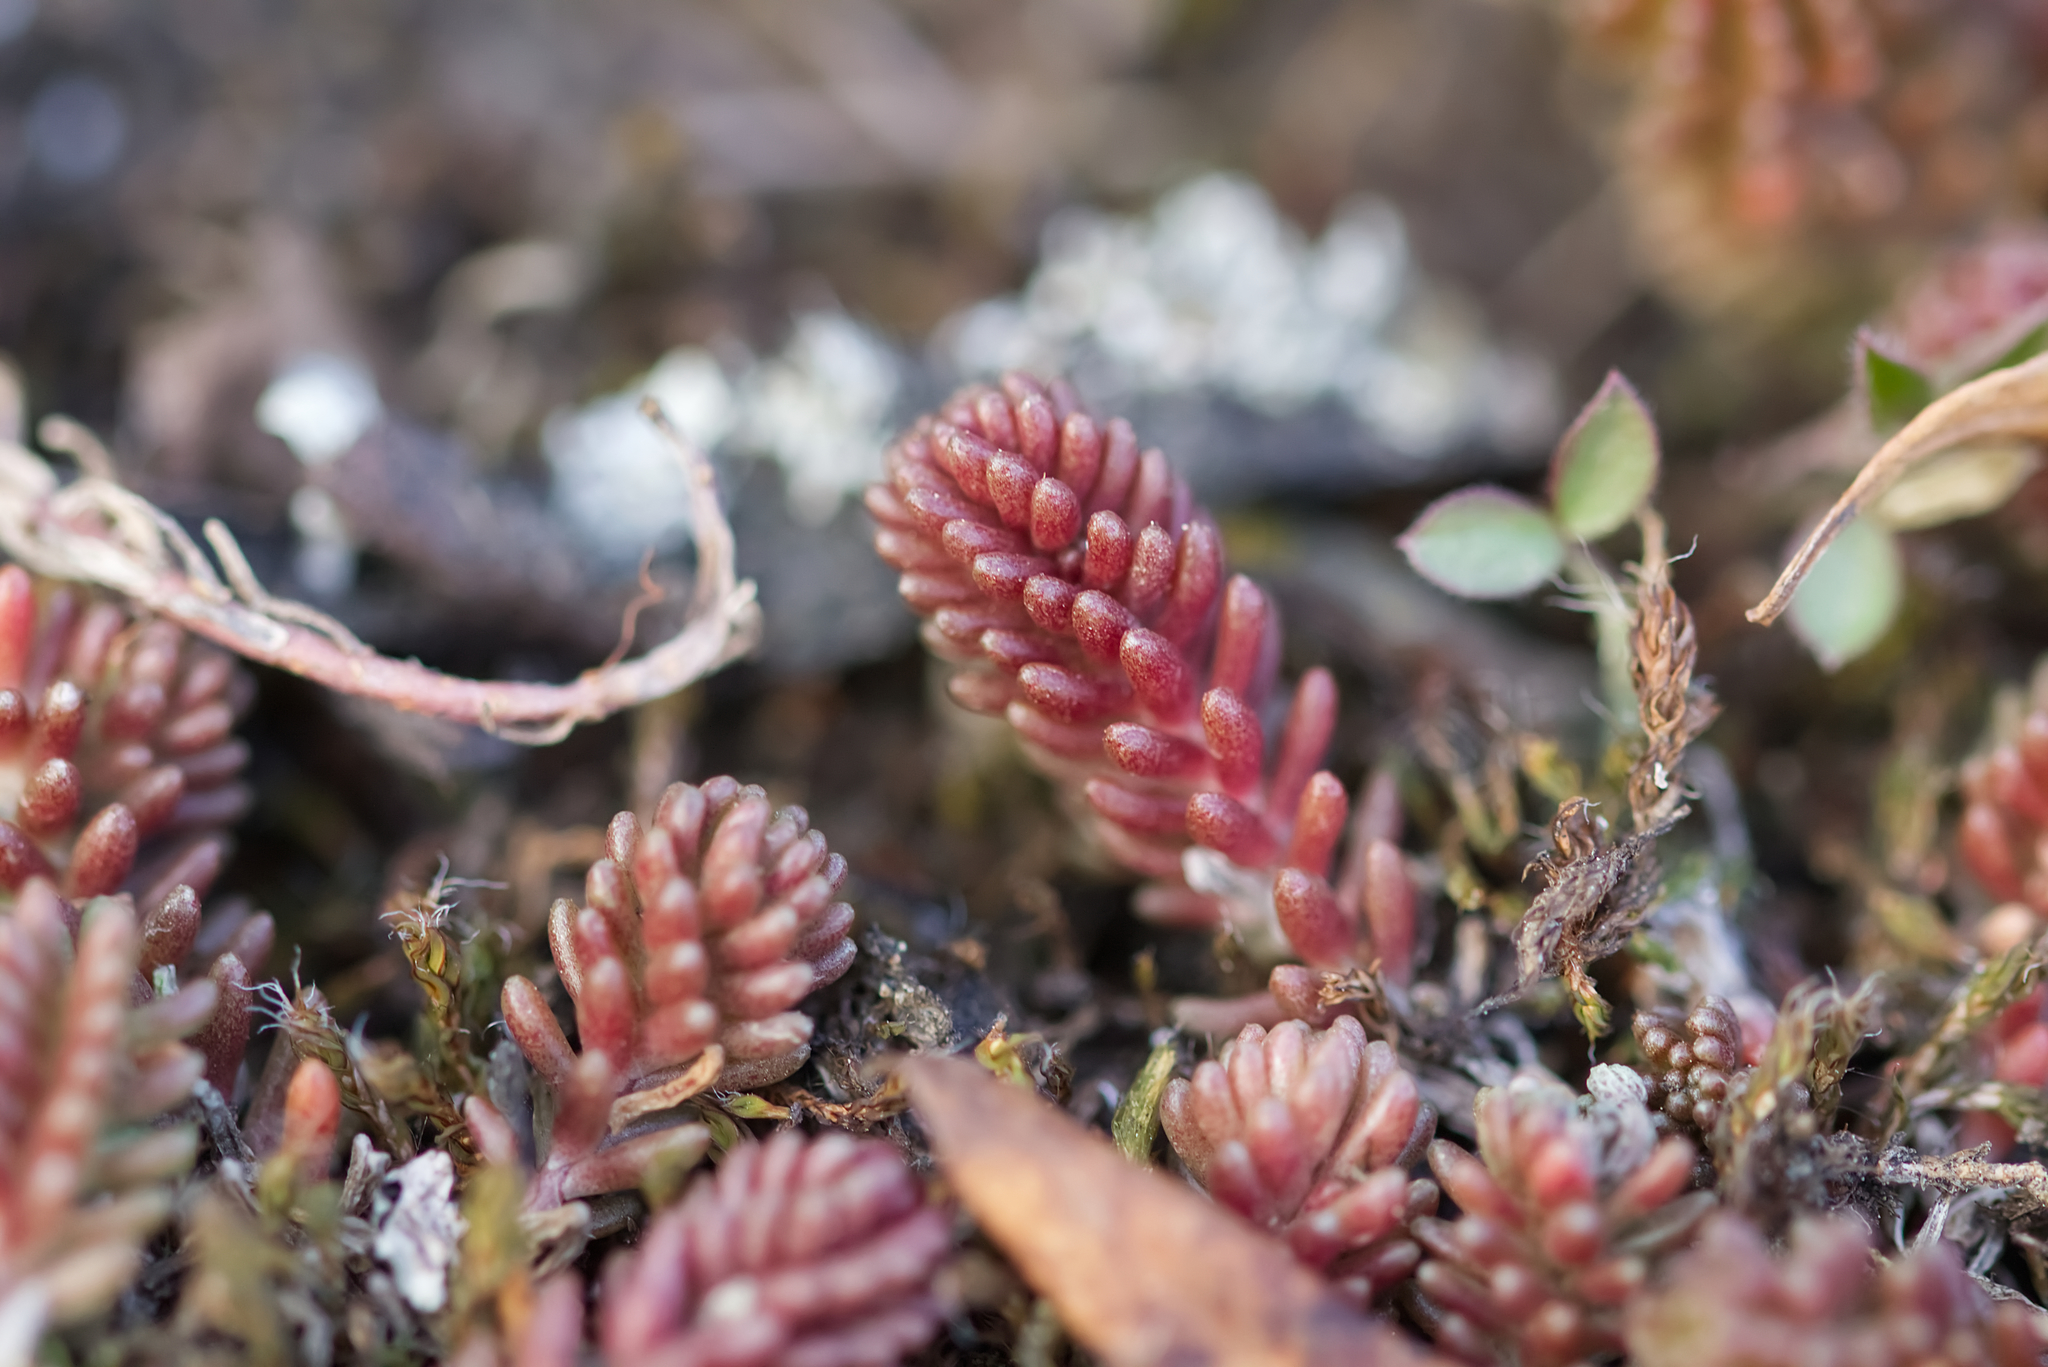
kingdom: Plantae
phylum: Tracheophyta
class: Magnoliopsida
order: Saxifragales
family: Crassulaceae
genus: Sedum
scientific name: Sedum sexangulare
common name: Tasteless stonecrop
